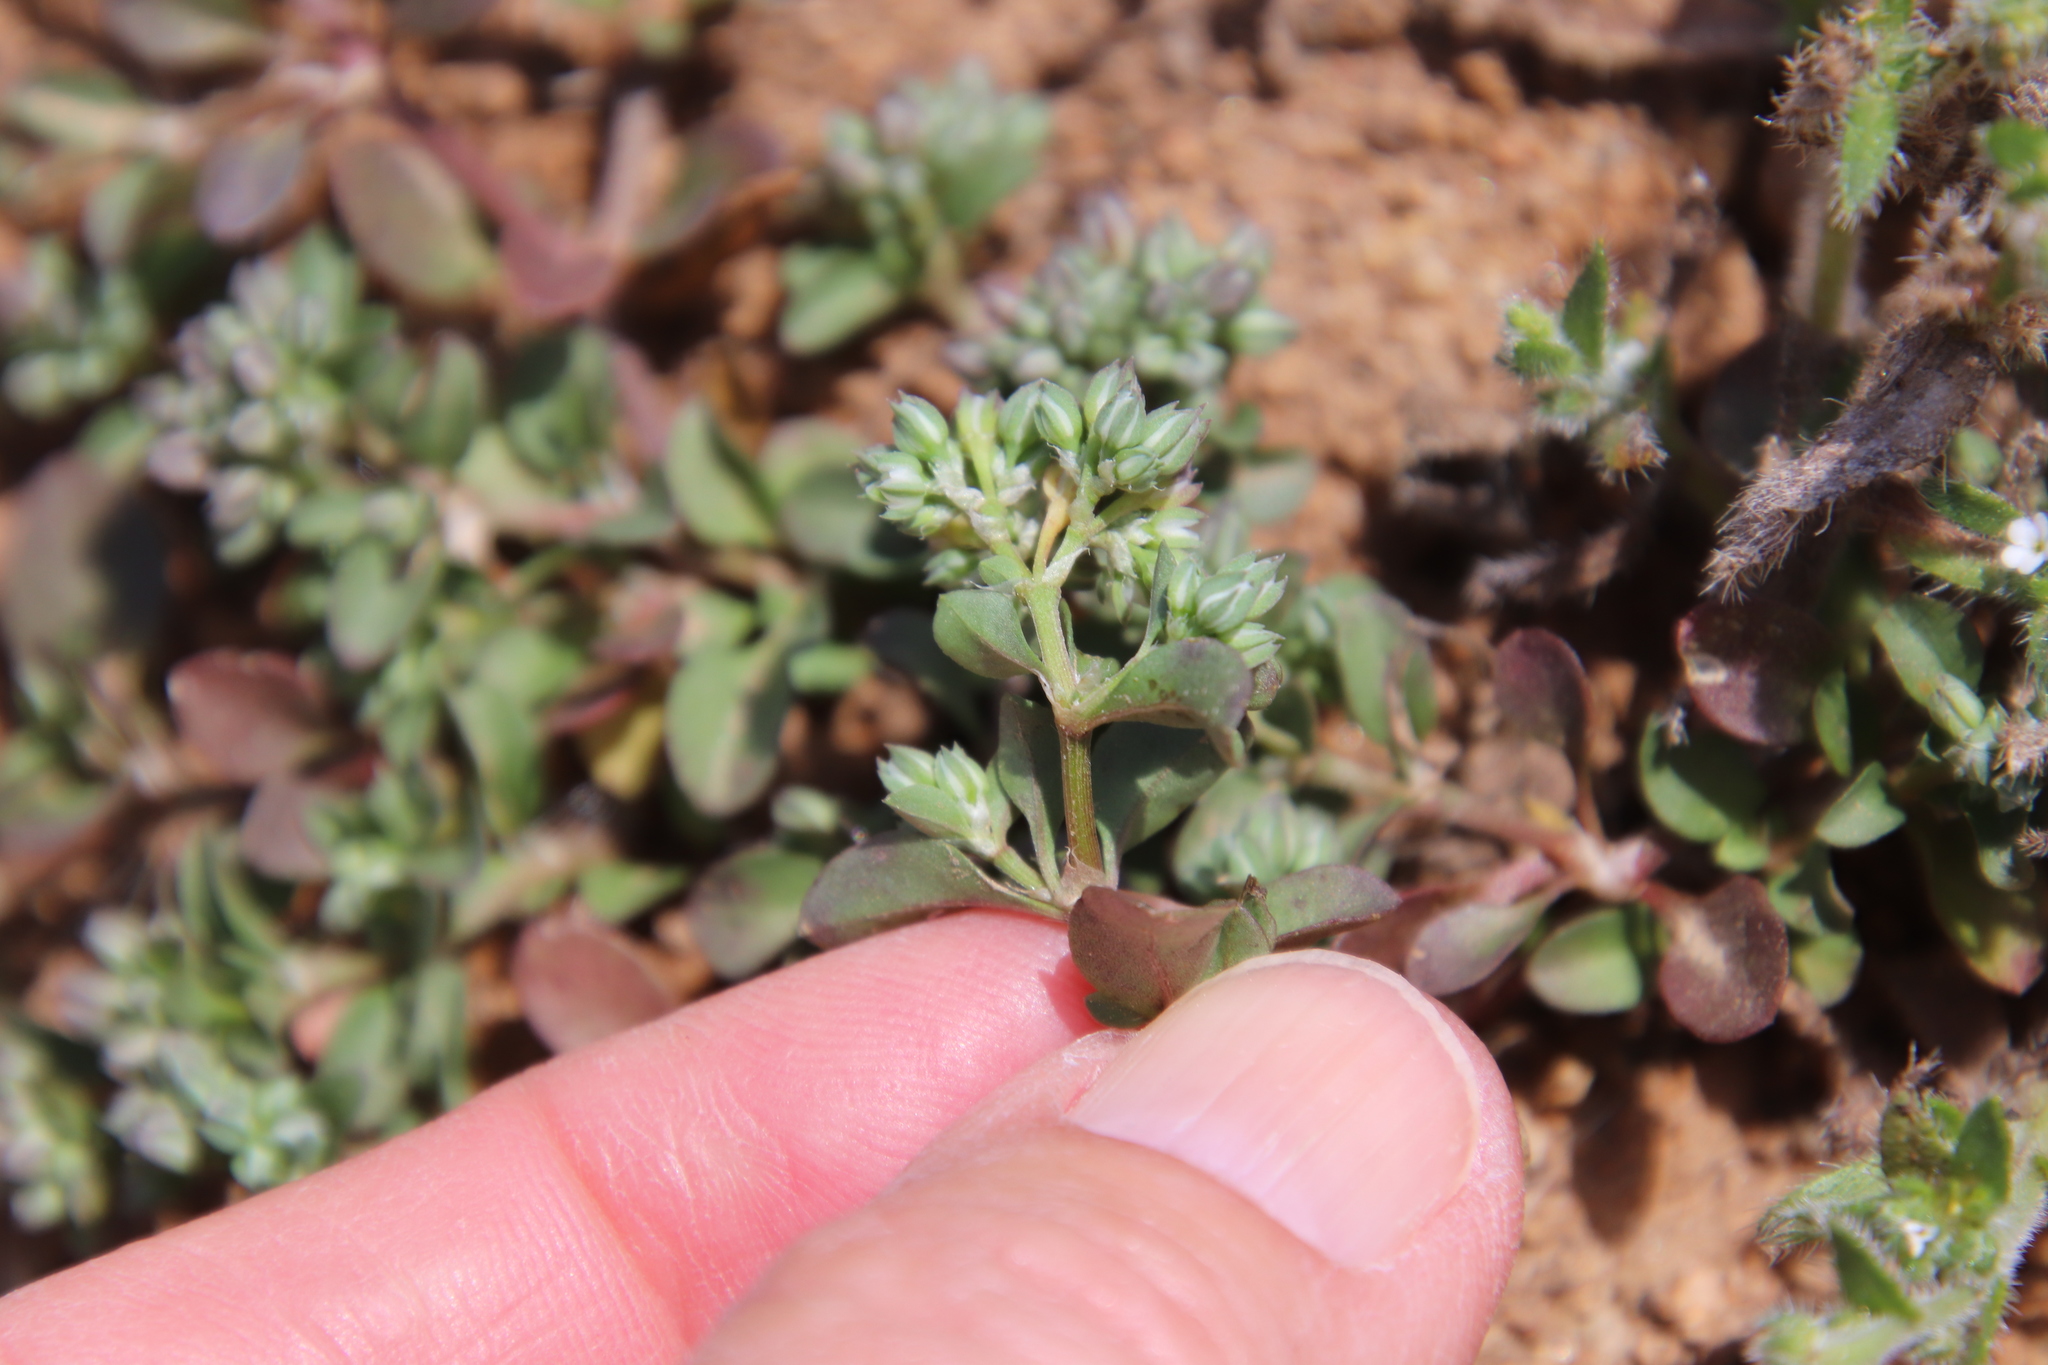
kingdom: Plantae
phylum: Tracheophyta
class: Magnoliopsida
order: Caryophyllales
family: Caryophyllaceae
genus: Polycarpon
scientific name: Polycarpon tetraphyllum
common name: Four-leaved all-seed
